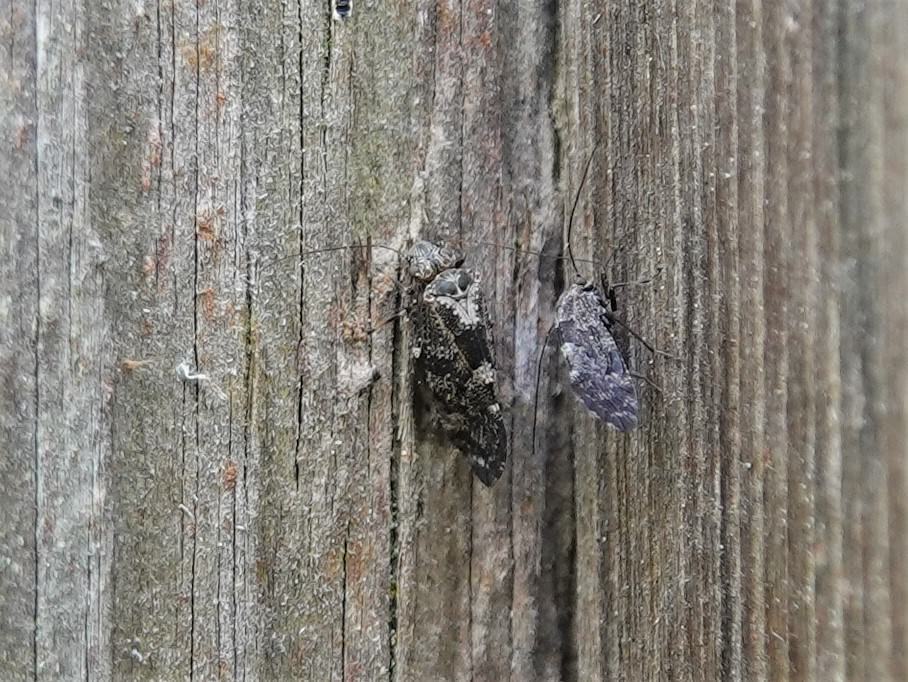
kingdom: Animalia
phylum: Arthropoda
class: Insecta
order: Psocodea
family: Myopsocidae
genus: Nimbopsocus
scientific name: Nimbopsocus australis
